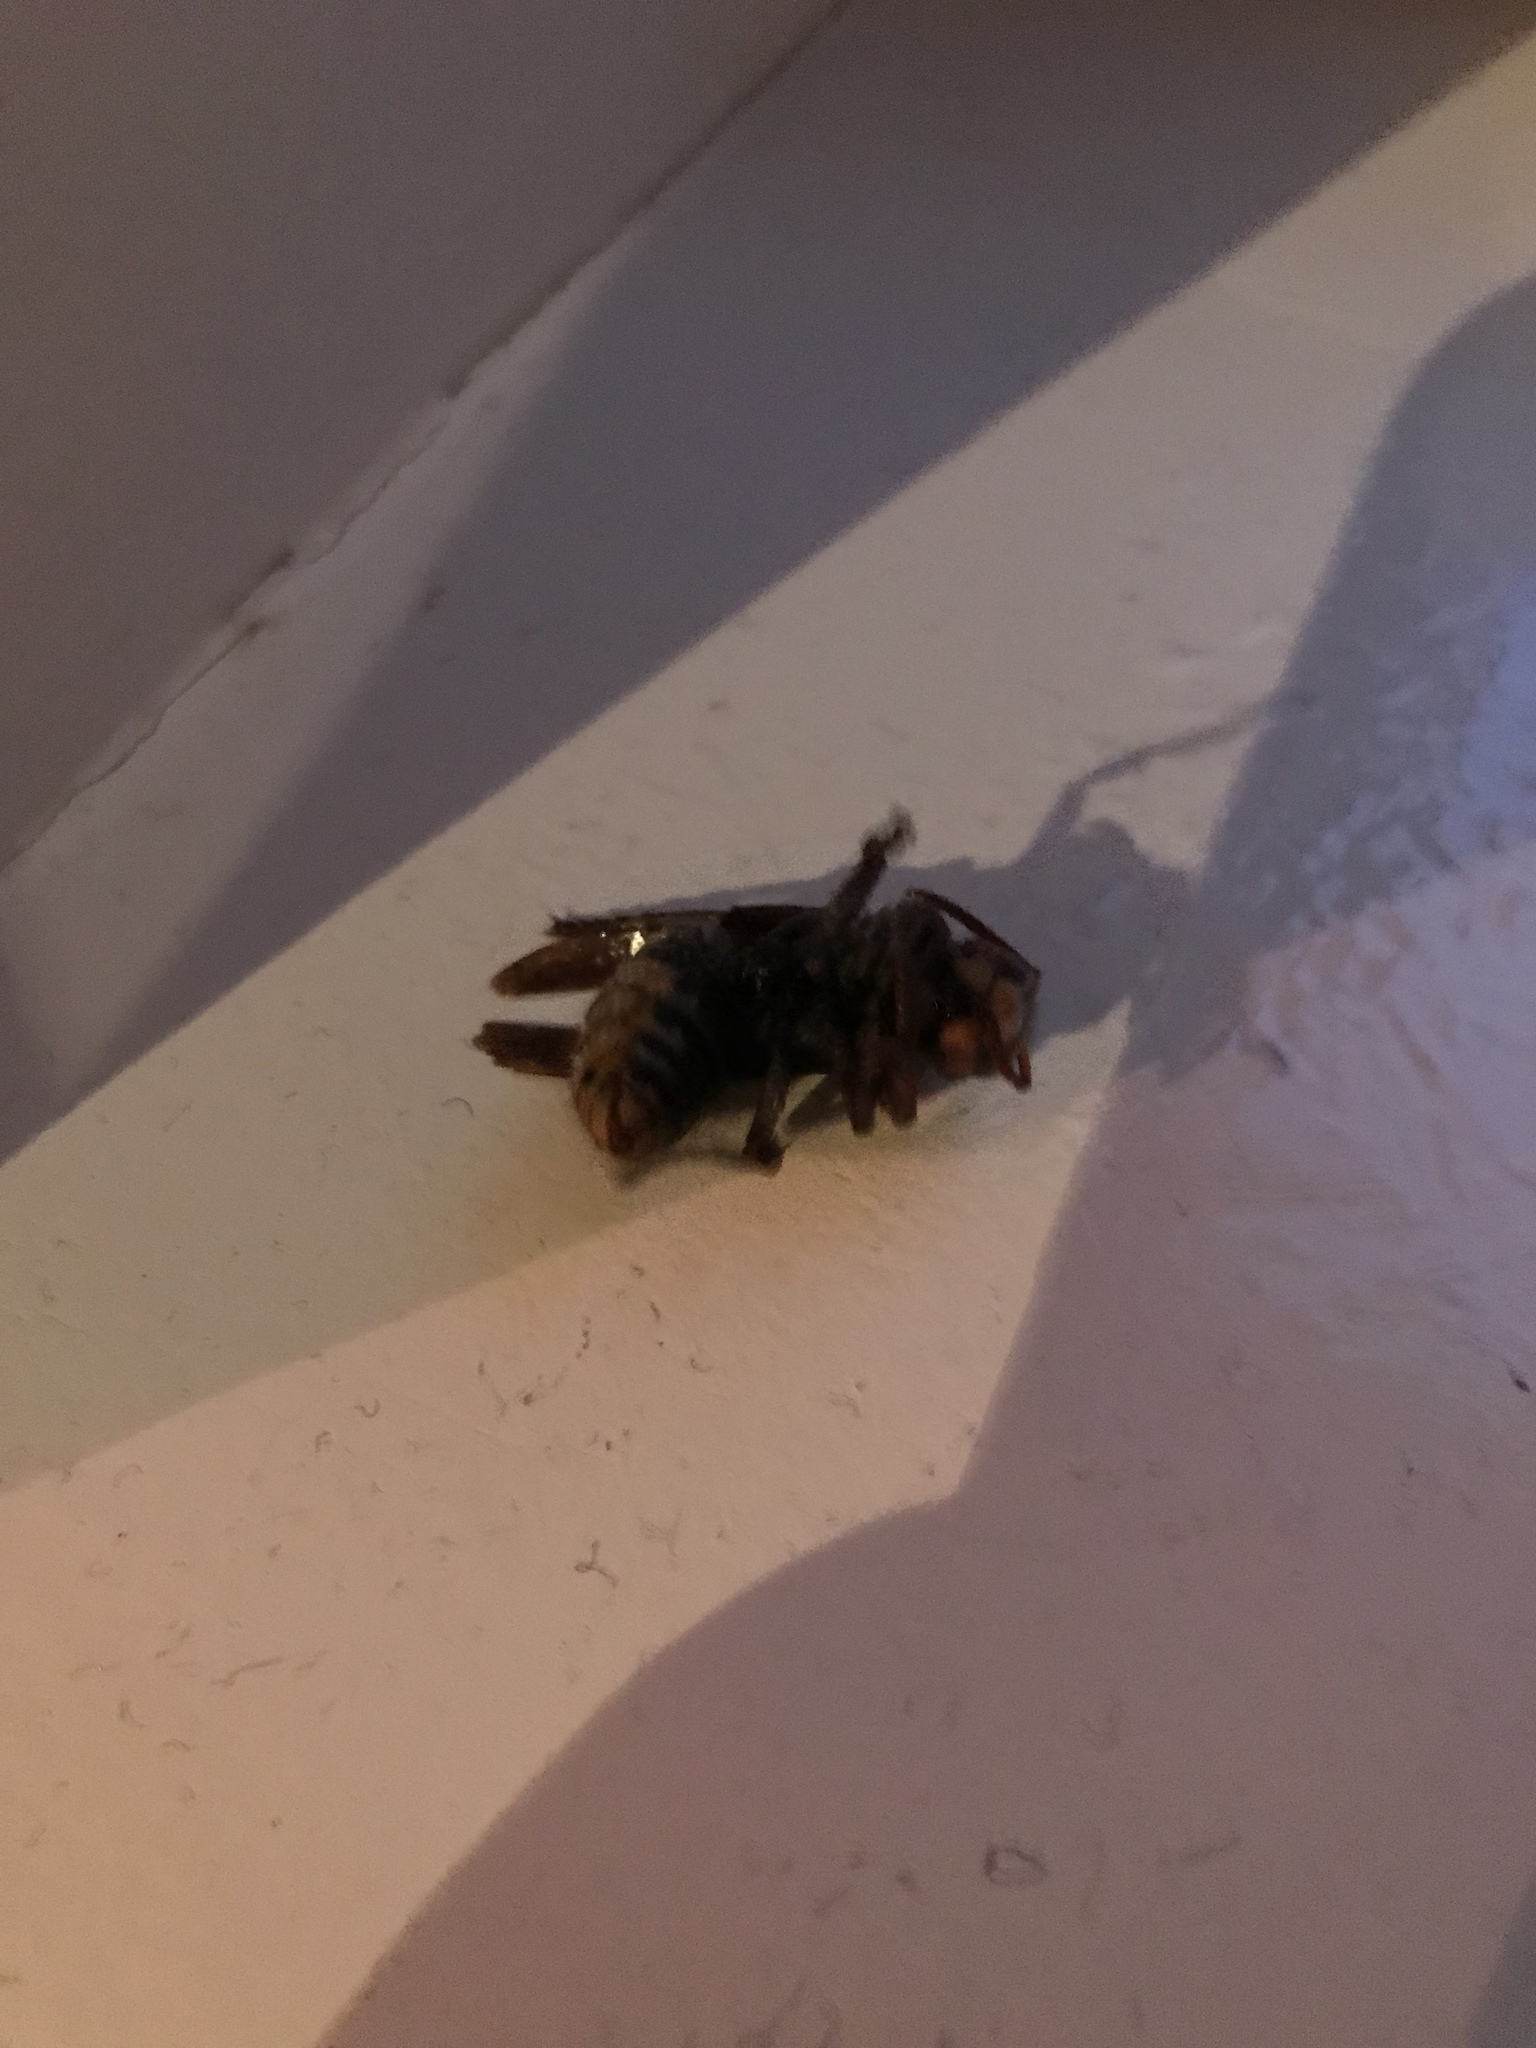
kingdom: Animalia
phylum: Arthropoda
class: Insecta
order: Hymenoptera
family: Vespidae
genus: Vespa
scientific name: Vespa crabro
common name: Hornet
